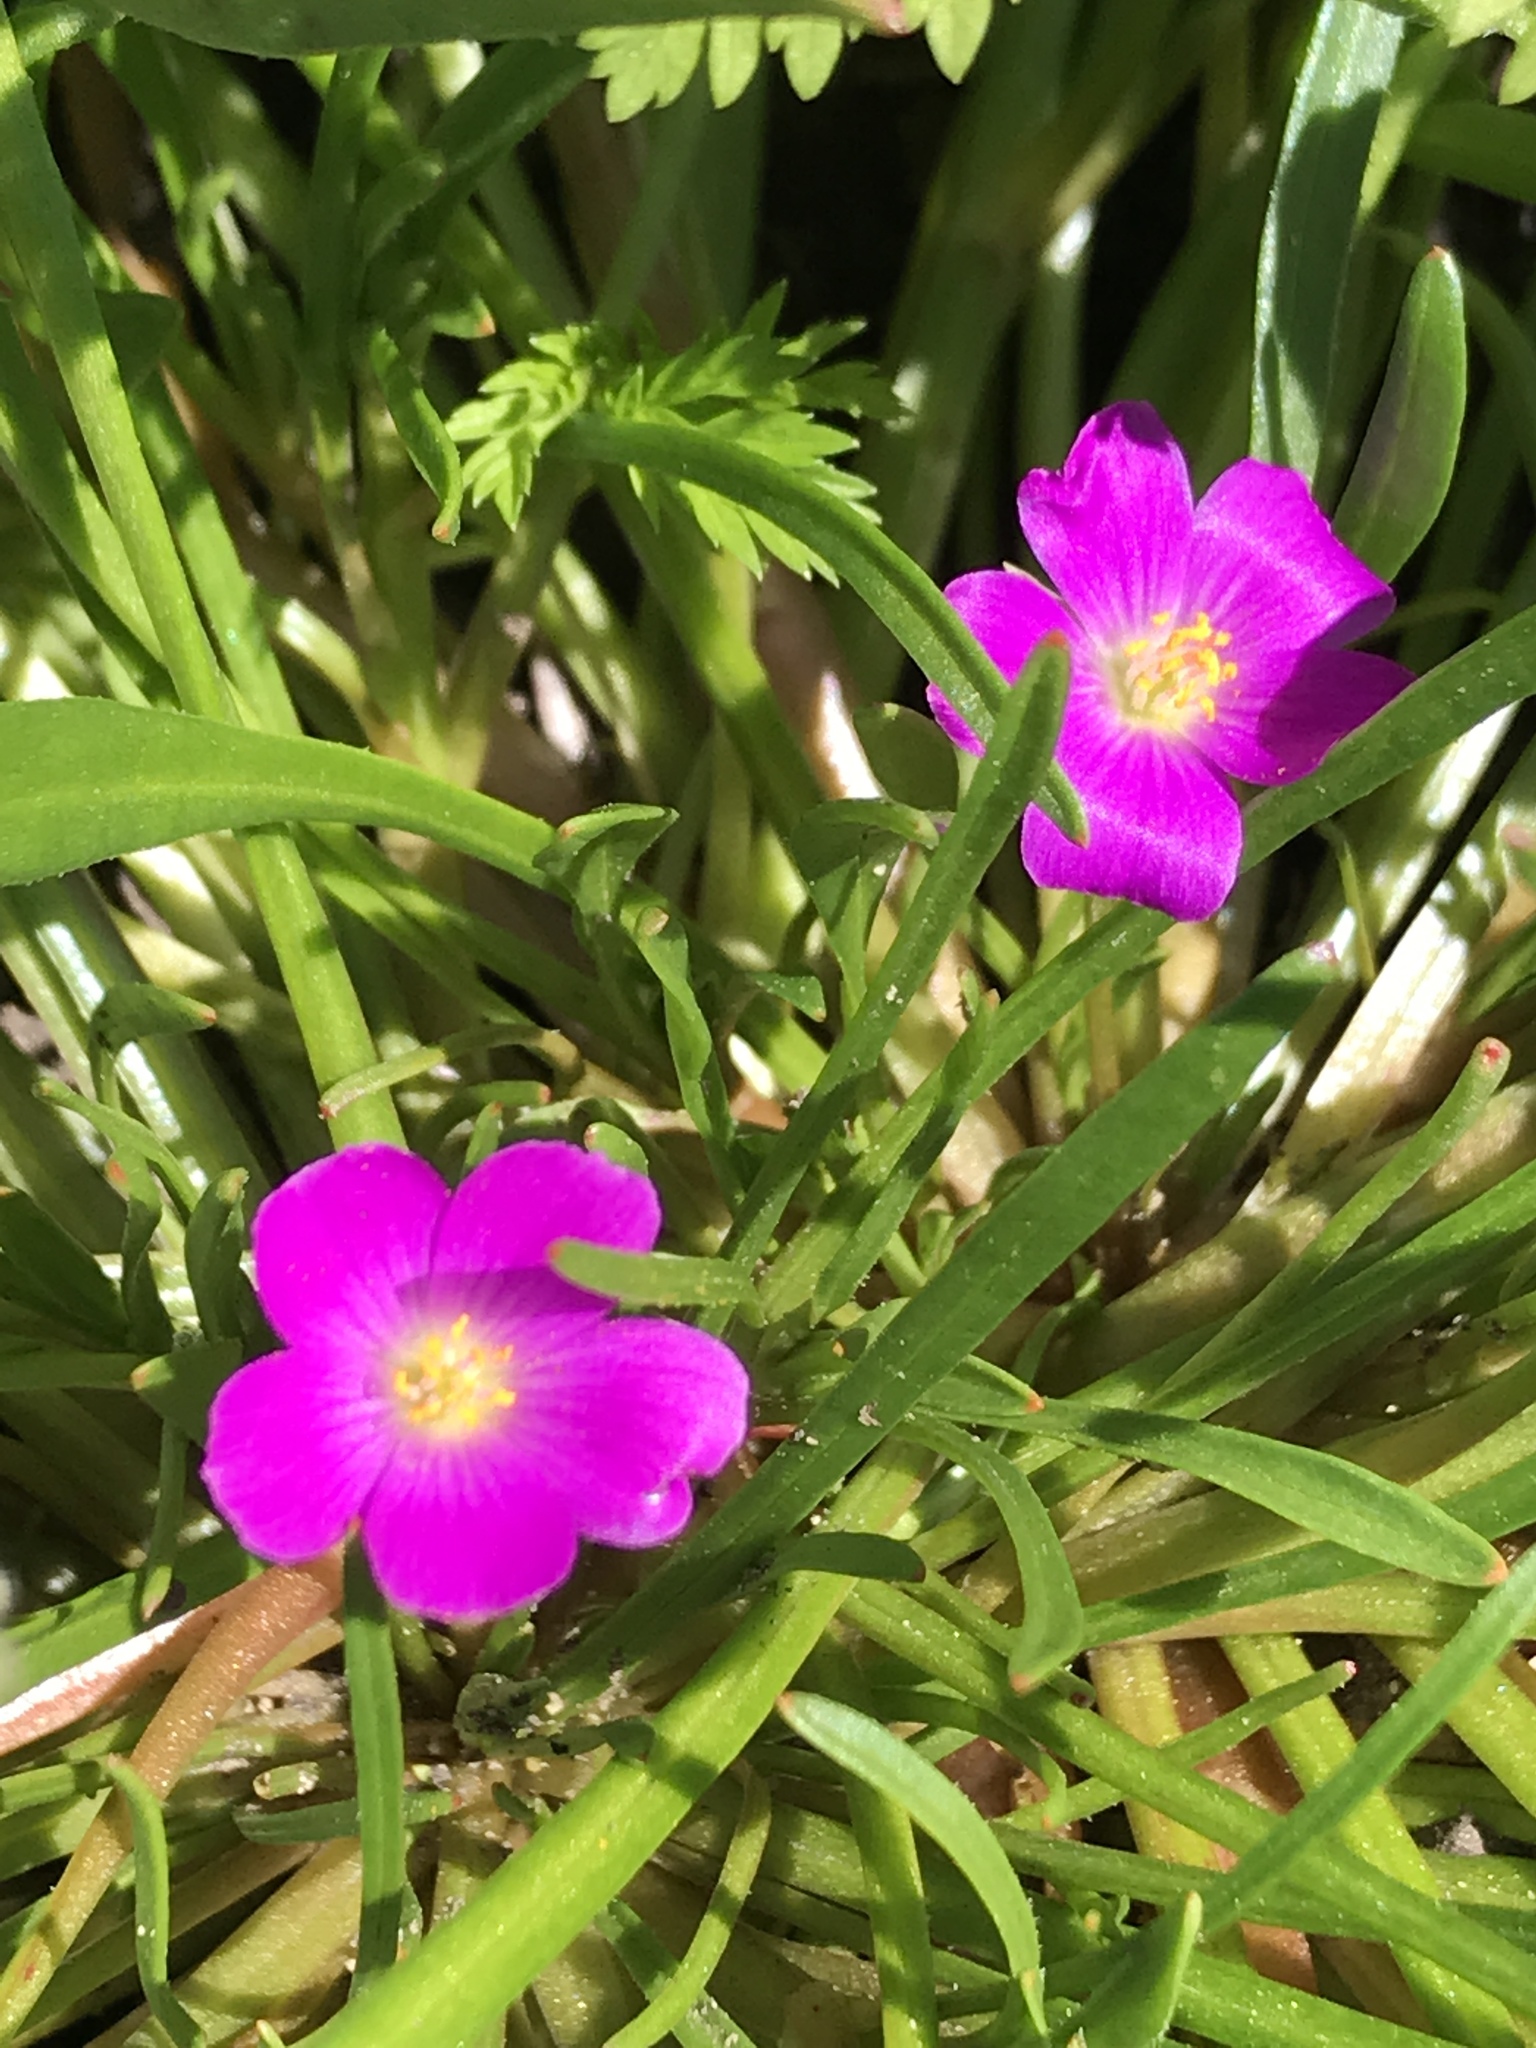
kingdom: Plantae
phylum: Tracheophyta
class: Magnoliopsida
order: Caryophyllales
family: Montiaceae
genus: Calandrinia
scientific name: Calandrinia menziesii
